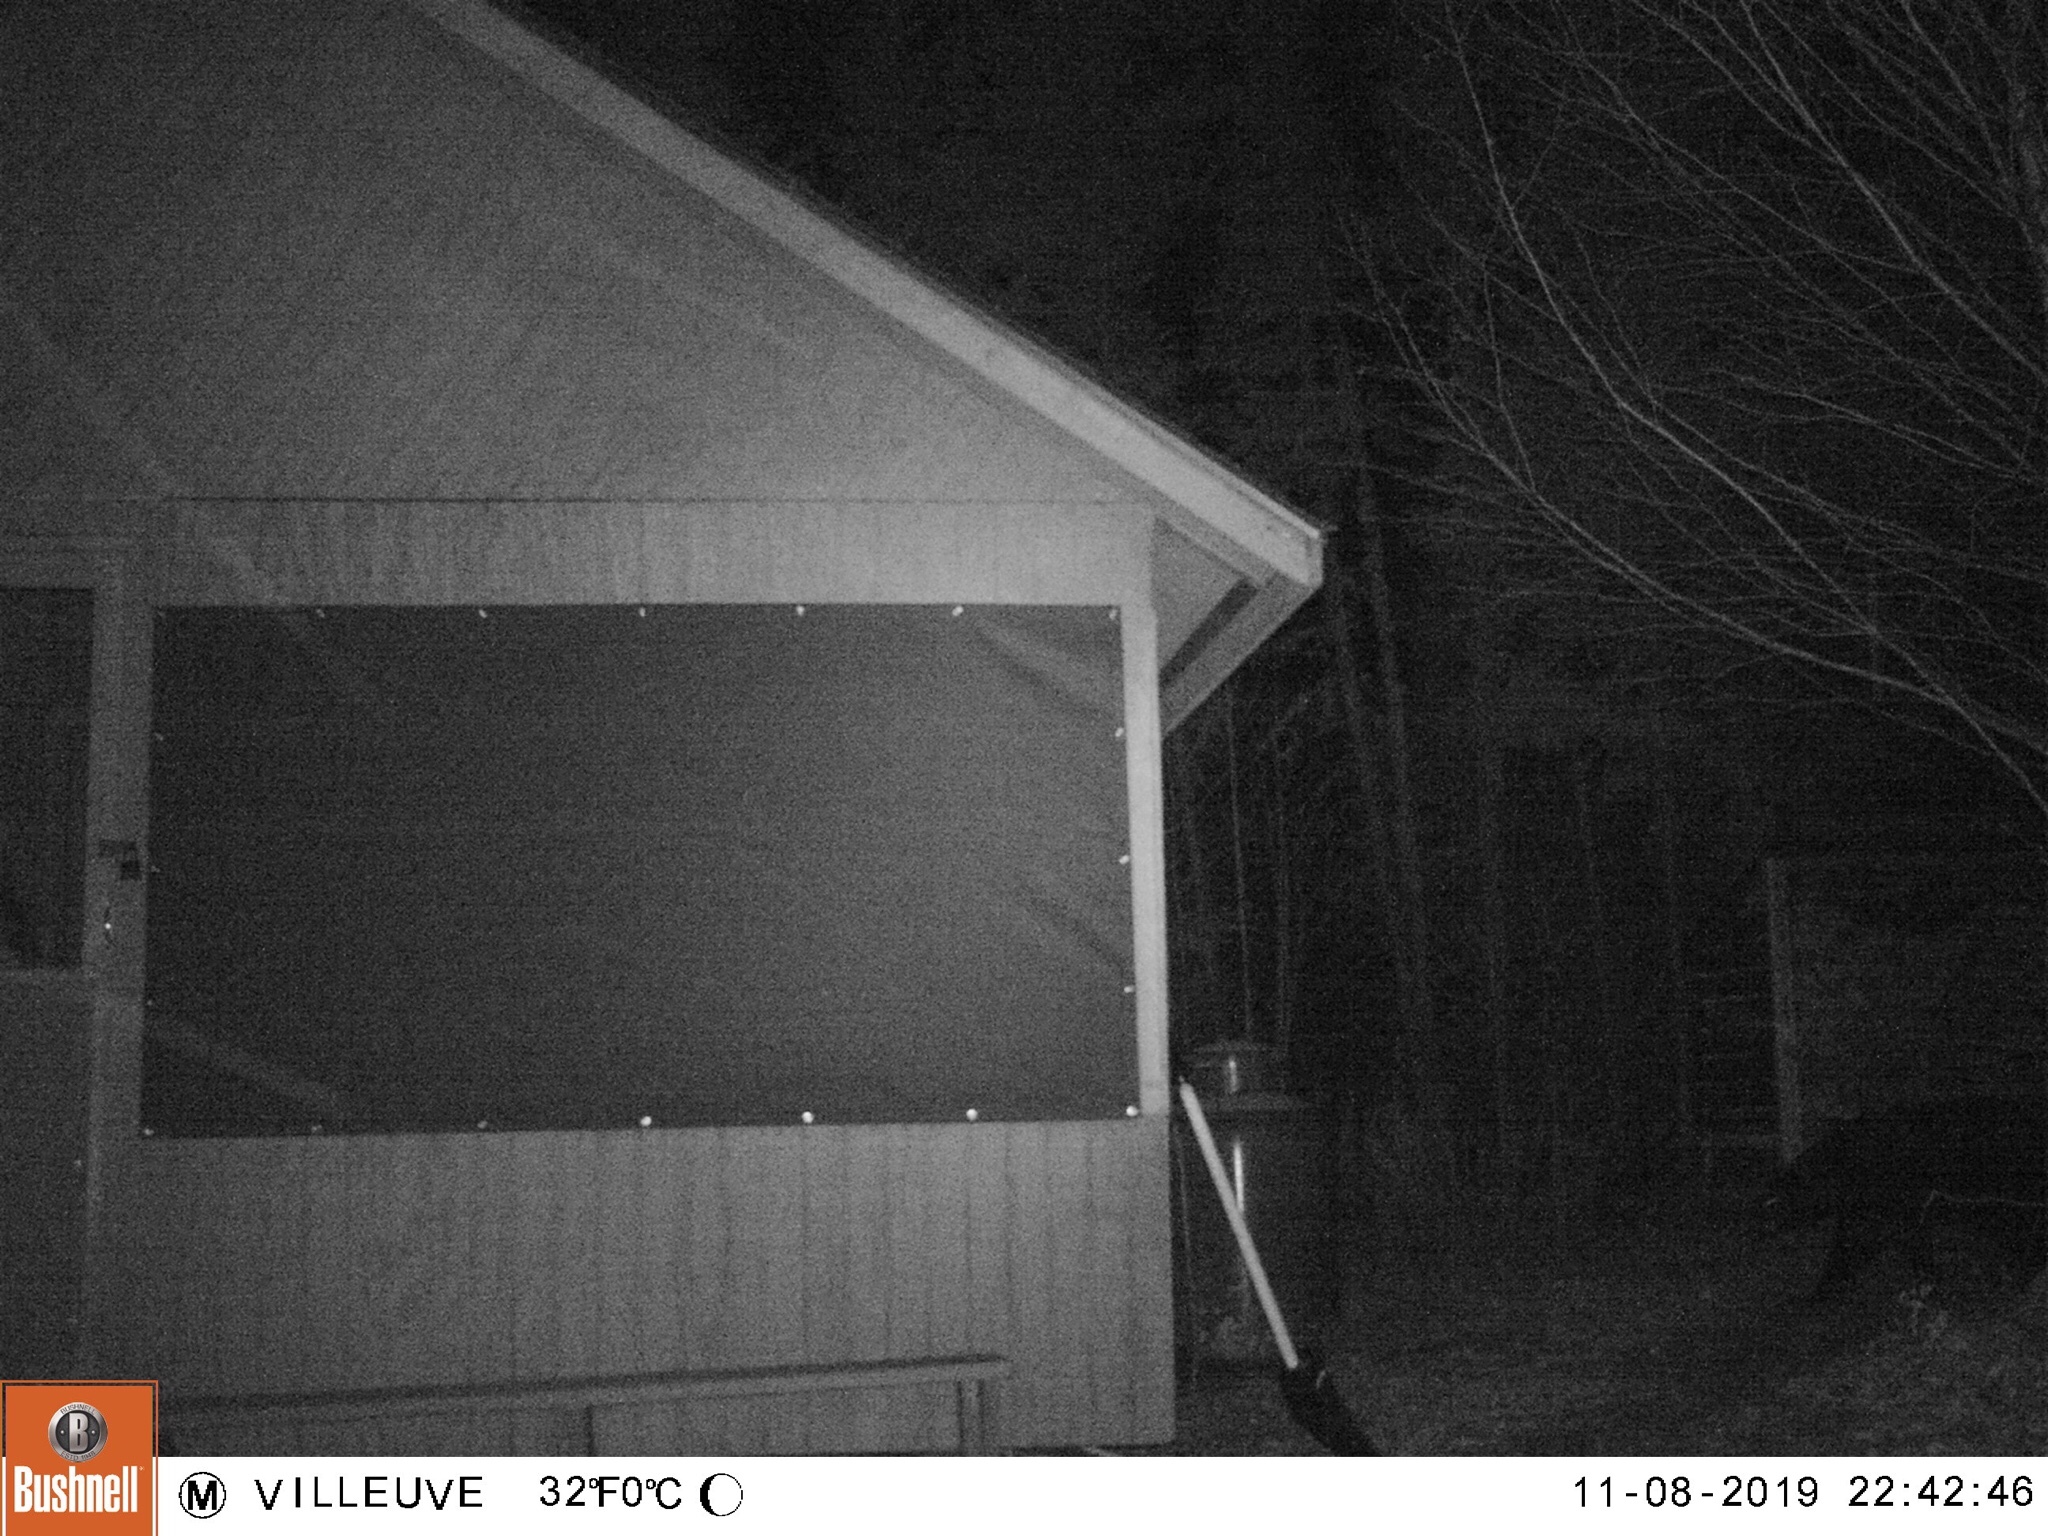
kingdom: Animalia
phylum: Chordata
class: Mammalia
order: Carnivora
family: Ursidae
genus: Ursus
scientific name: Ursus americanus
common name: American black bear
